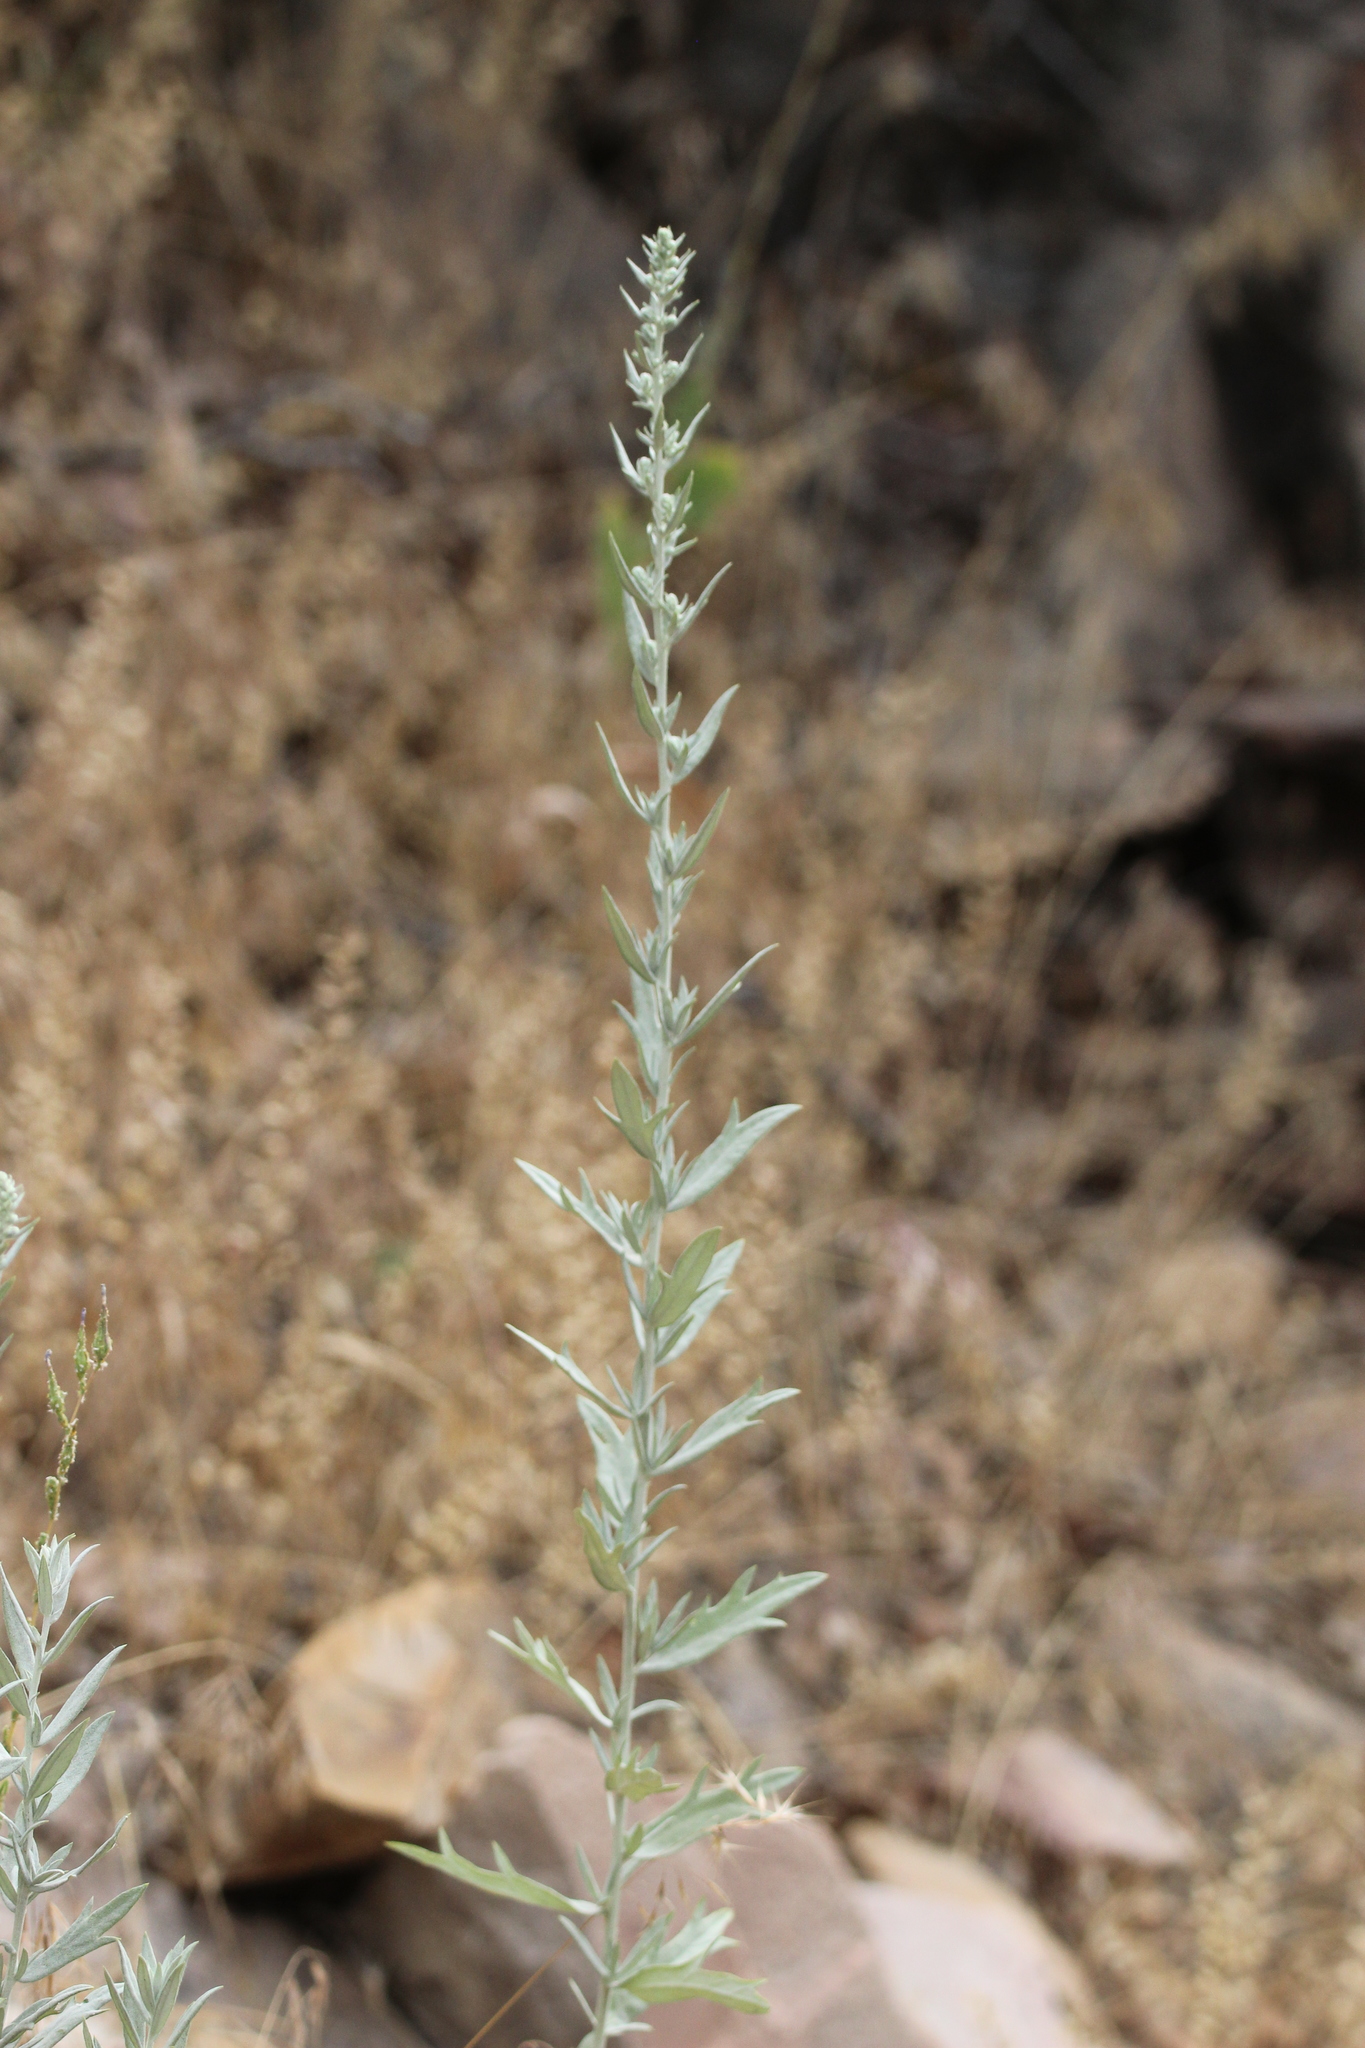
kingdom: Plantae
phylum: Tracheophyta
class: Magnoliopsida
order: Asterales
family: Asteraceae
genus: Artemisia
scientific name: Artemisia ludoviciana
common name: Western mugwort
